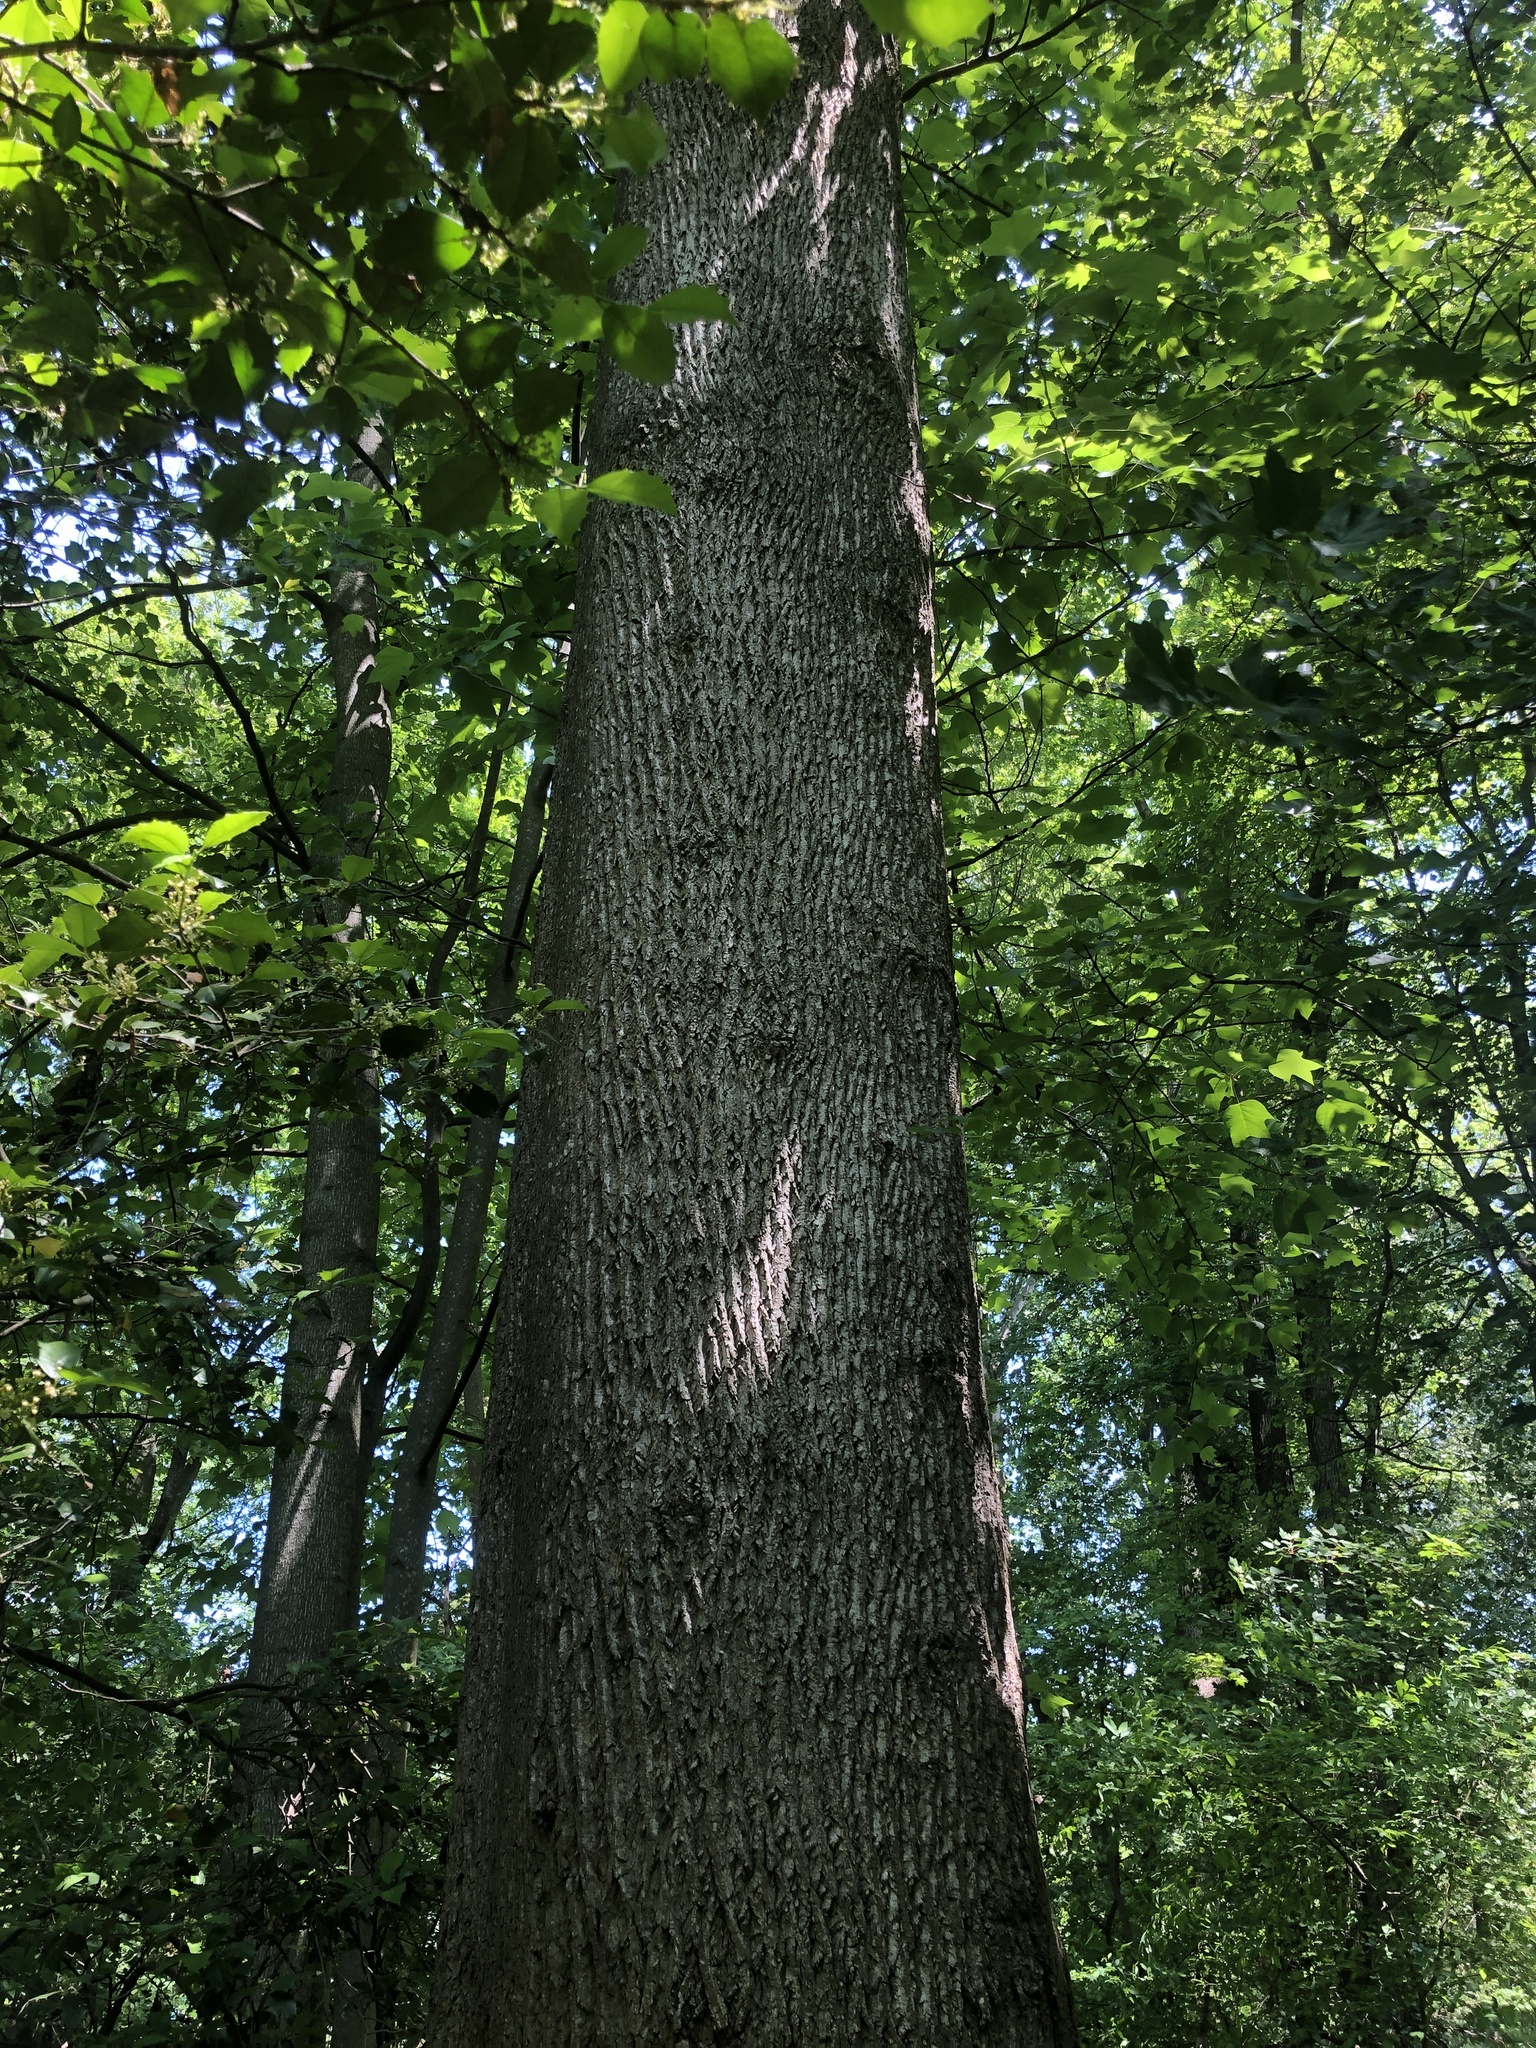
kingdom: Plantae
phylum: Tracheophyta
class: Magnoliopsida
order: Magnoliales
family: Magnoliaceae
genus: Liriodendron
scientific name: Liriodendron tulipifera
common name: Tulip tree
